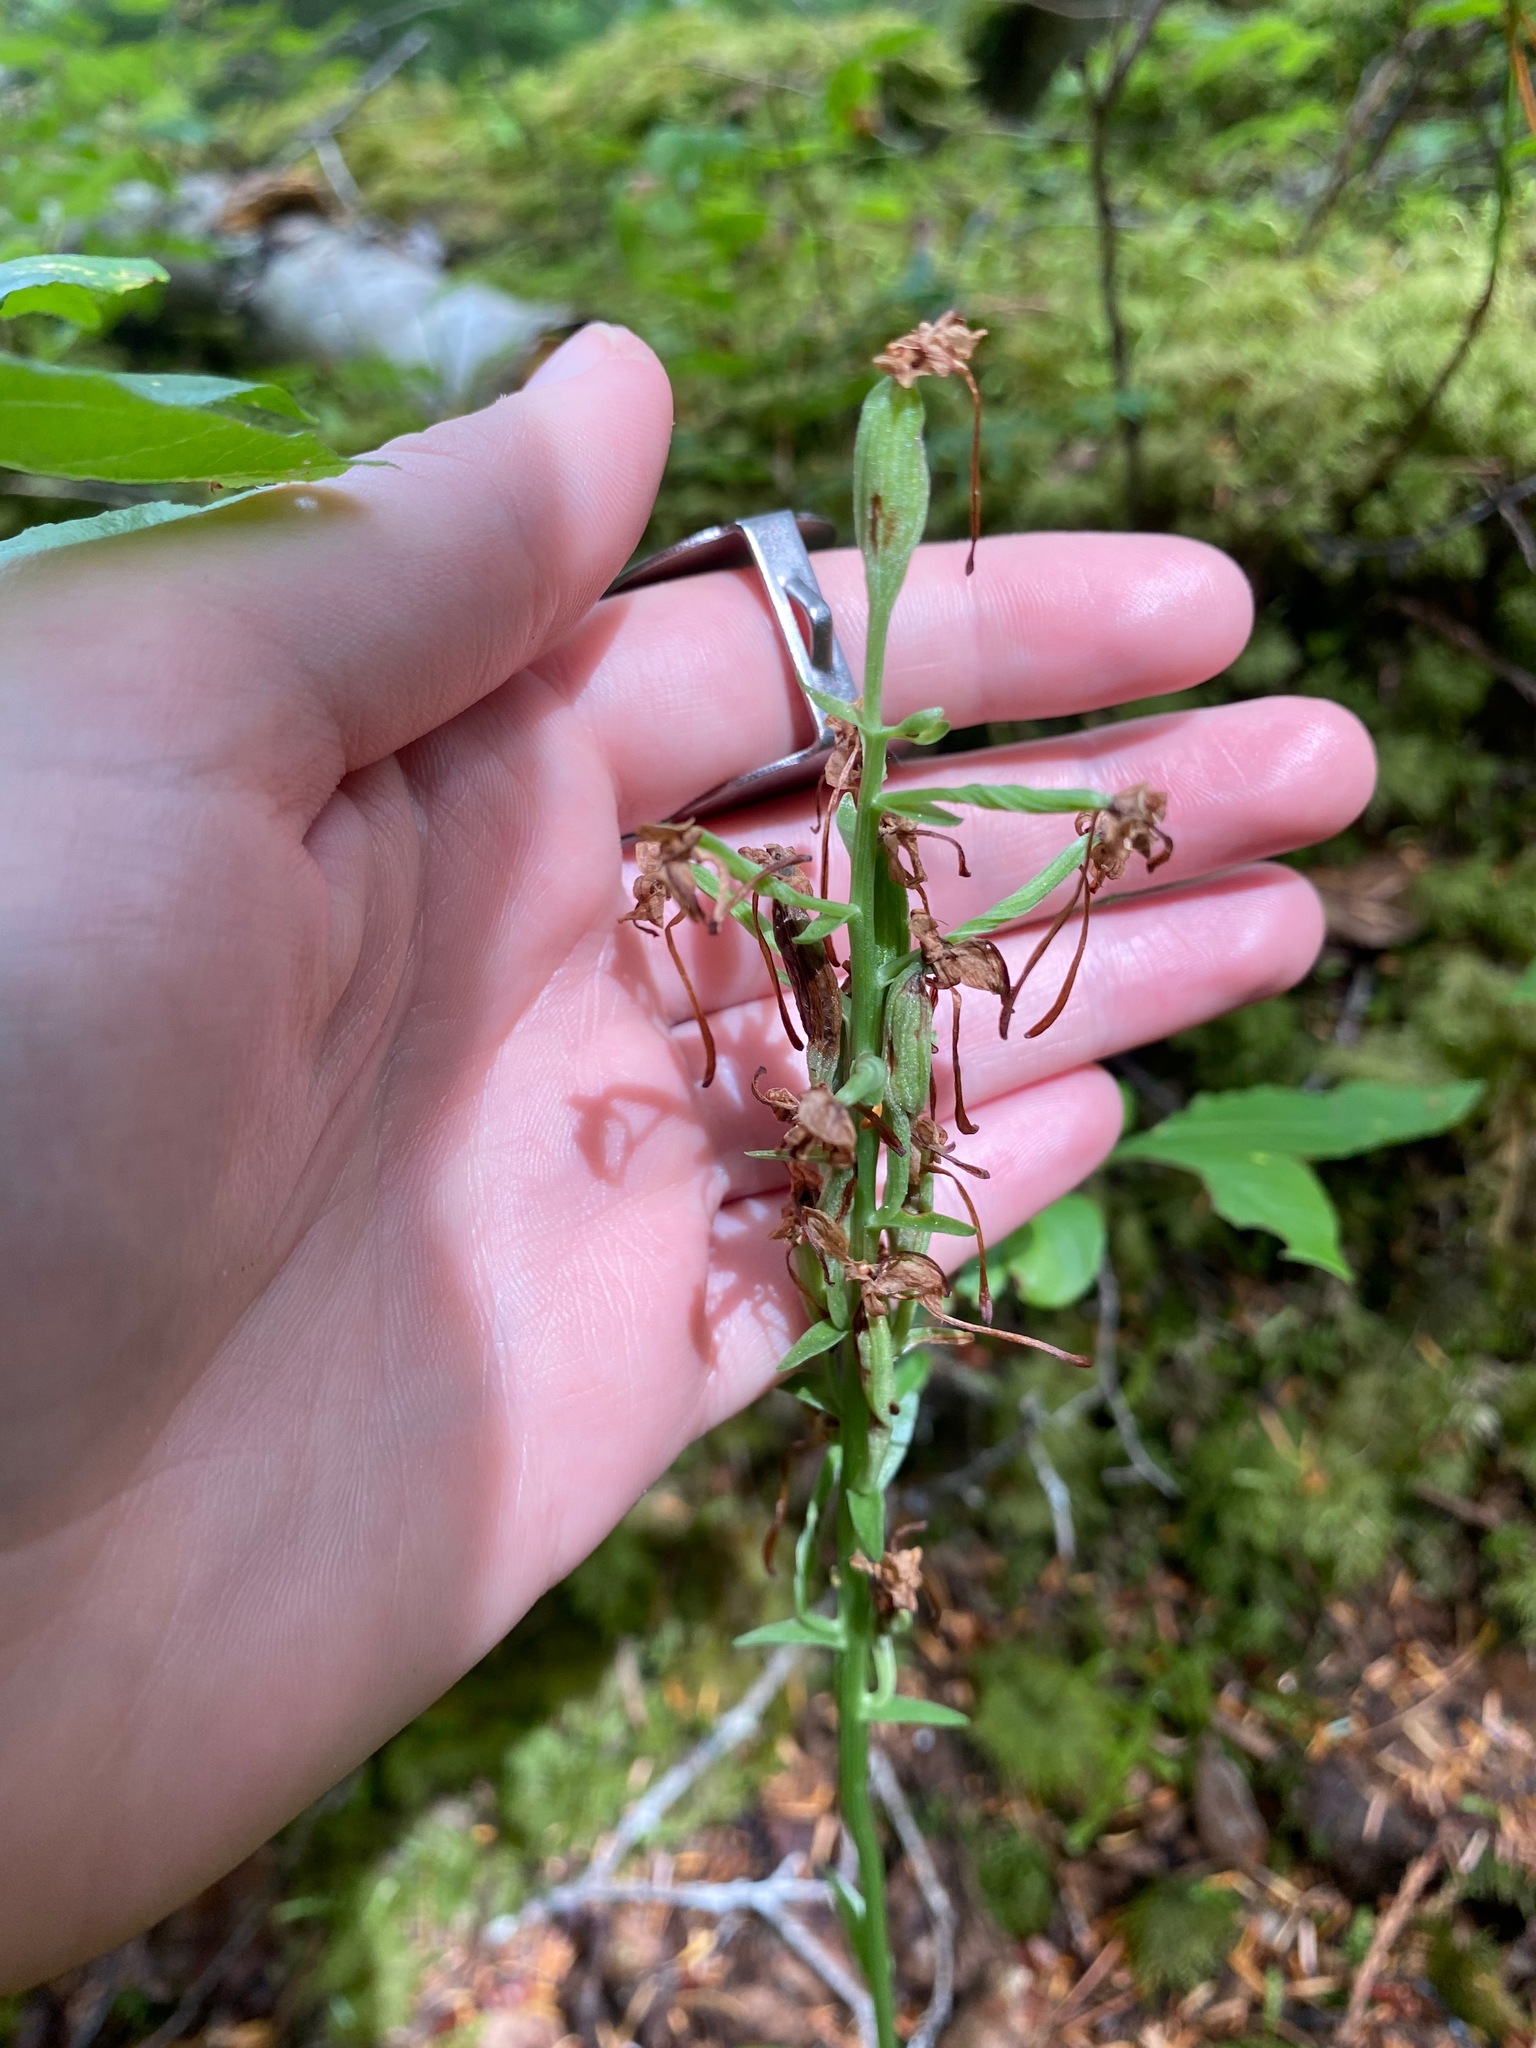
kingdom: Plantae
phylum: Tracheophyta
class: Liliopsida
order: Asparagales
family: Orchidaceae
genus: Platanthera
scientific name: Platanthera orbiculata
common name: Large round-leaved orchid
